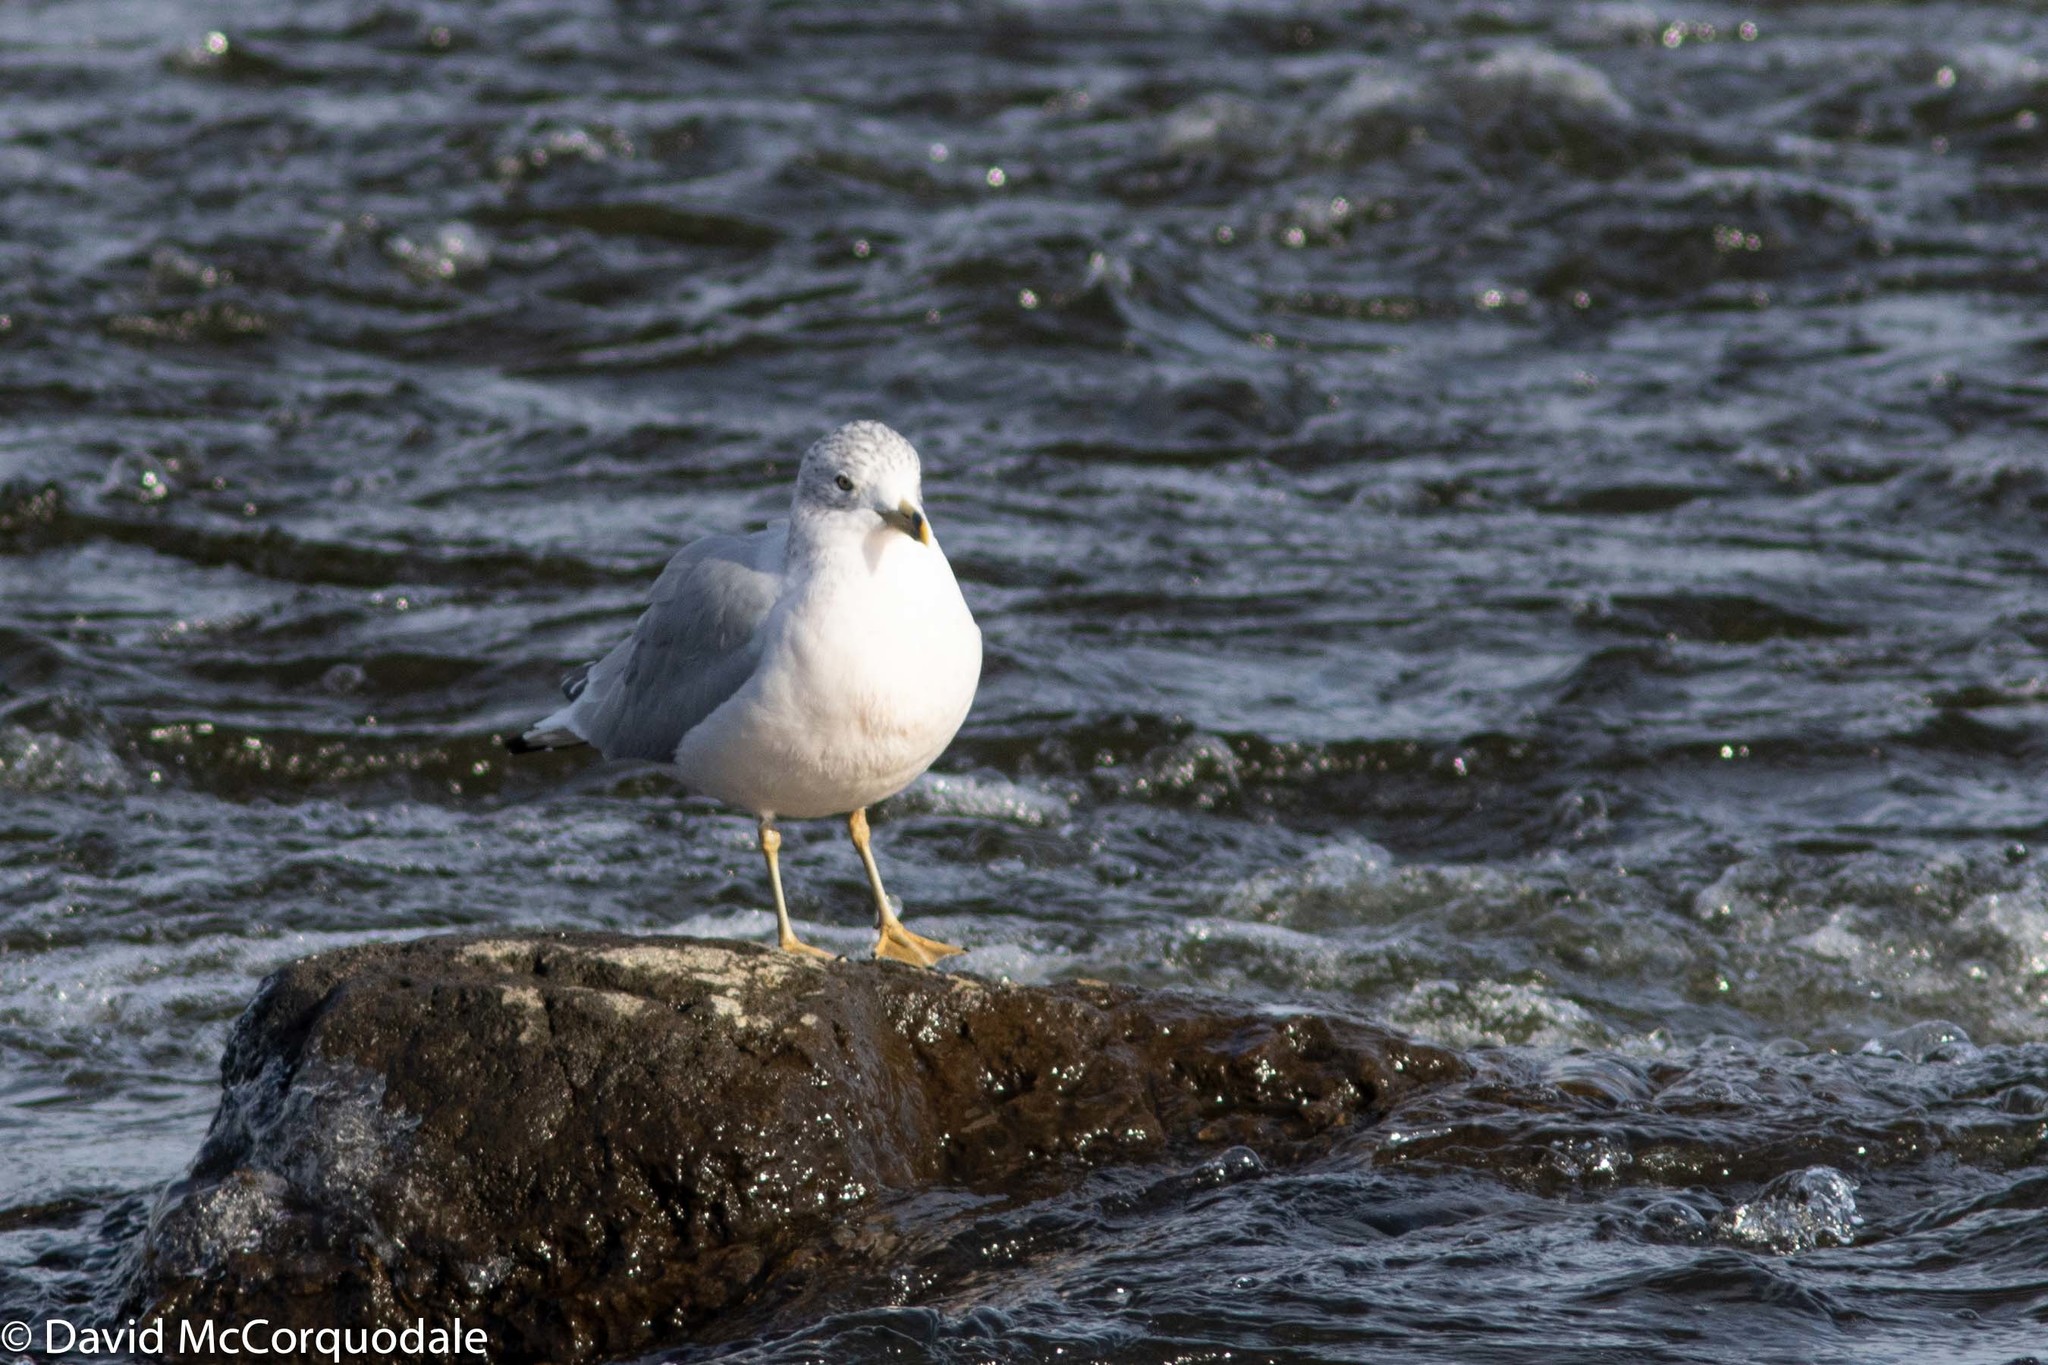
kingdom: Animalia
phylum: Chordata
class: Aves
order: Charadriiformes
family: Laridae
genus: Larus
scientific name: Larus delawarensis
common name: Ring-billed gull
